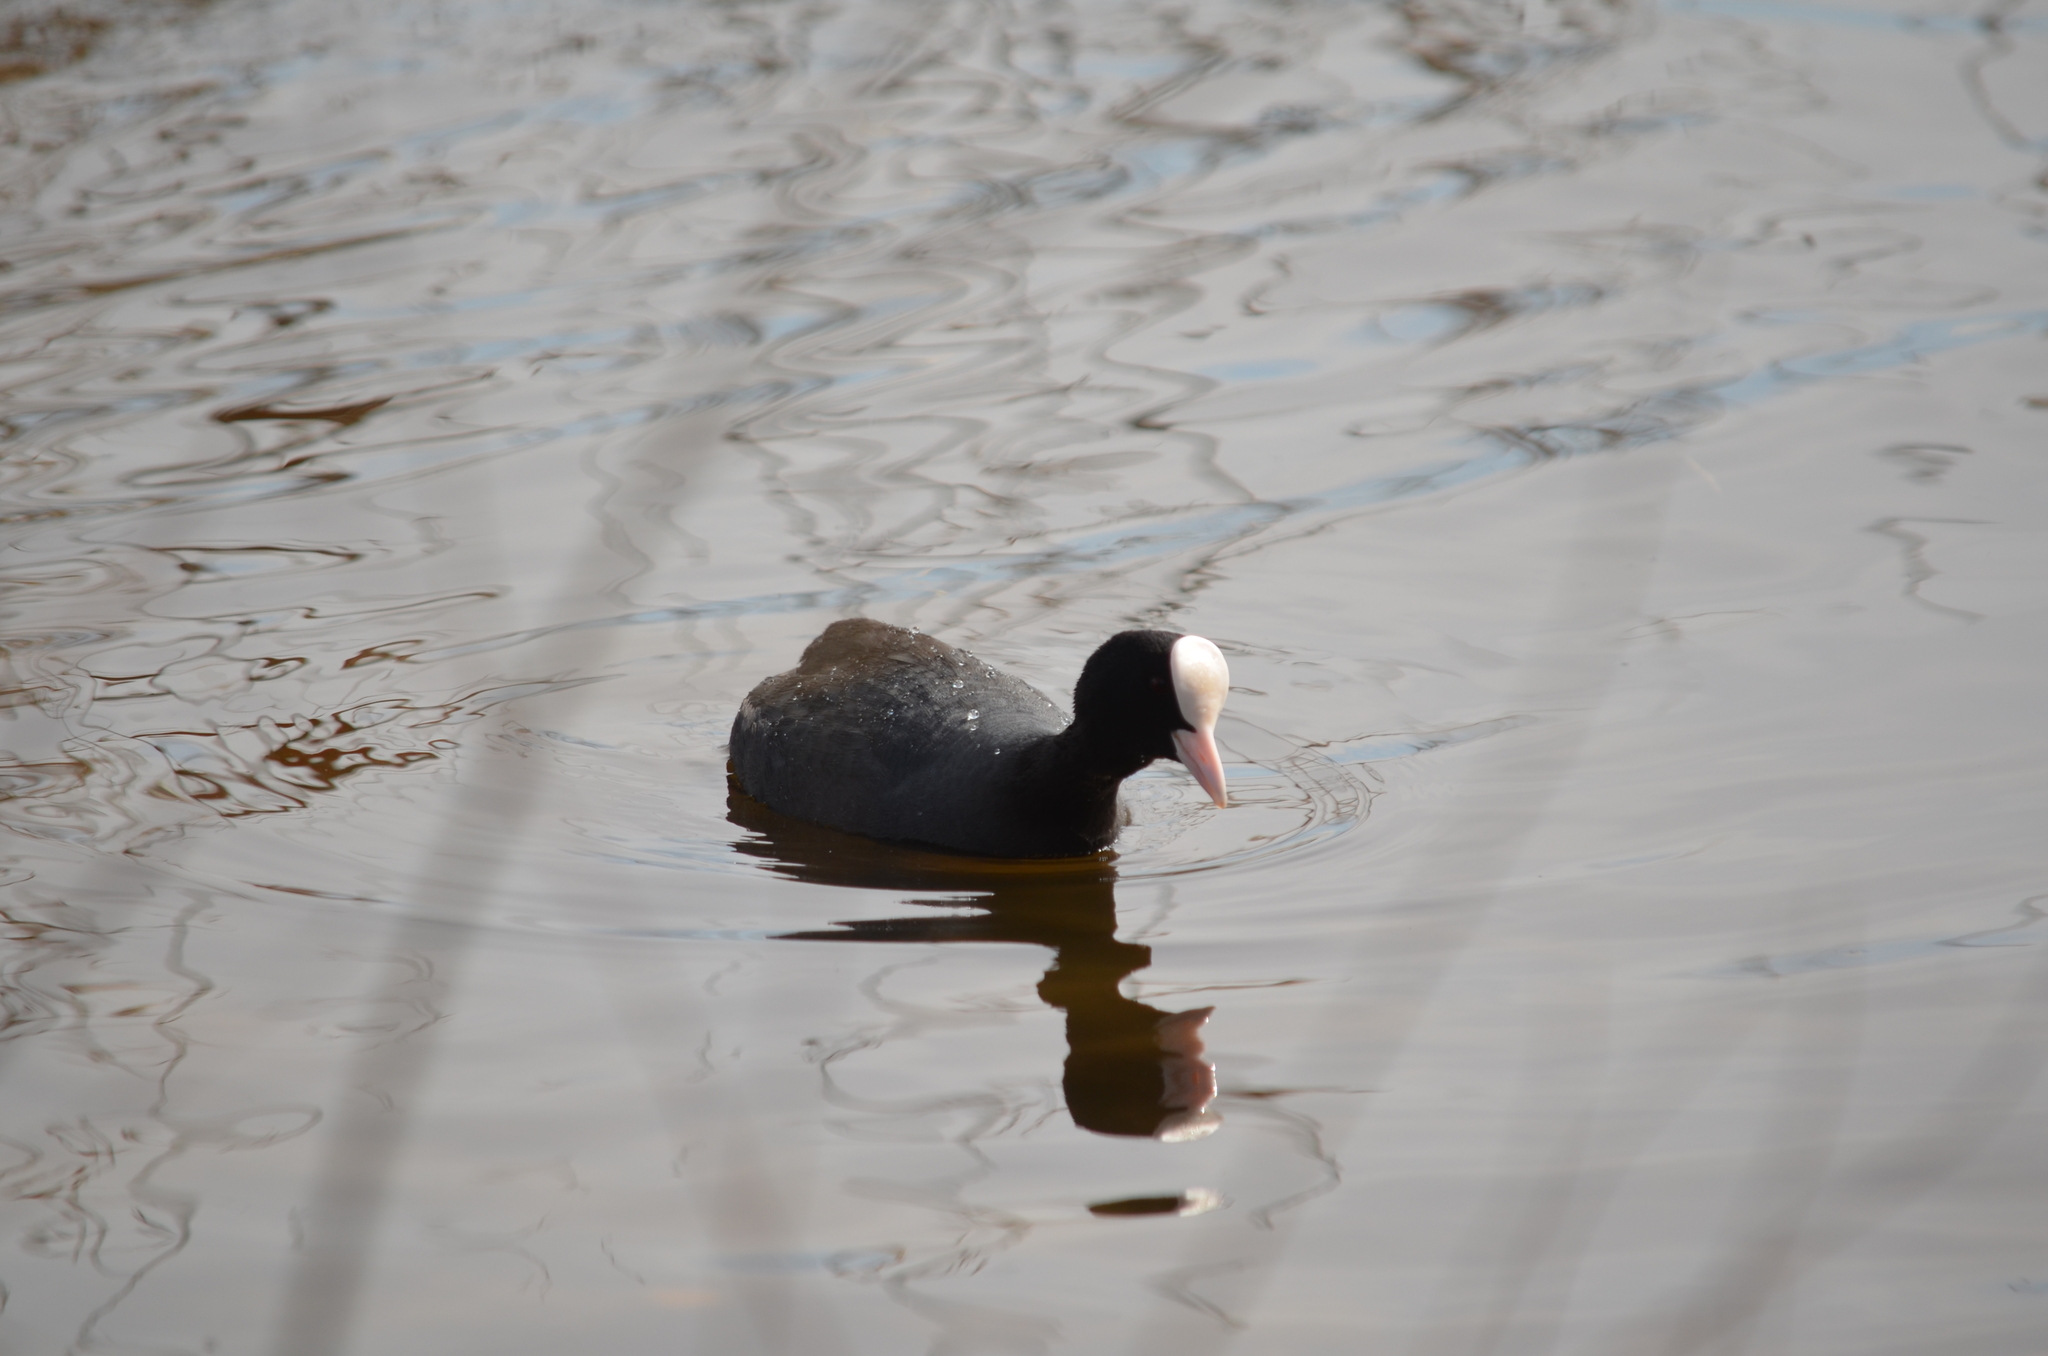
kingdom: Animalia
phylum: Chordata
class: Aves
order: Gruiformes
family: Rallidae
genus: Fulica
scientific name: Fulica atra
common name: Eurasian coot
